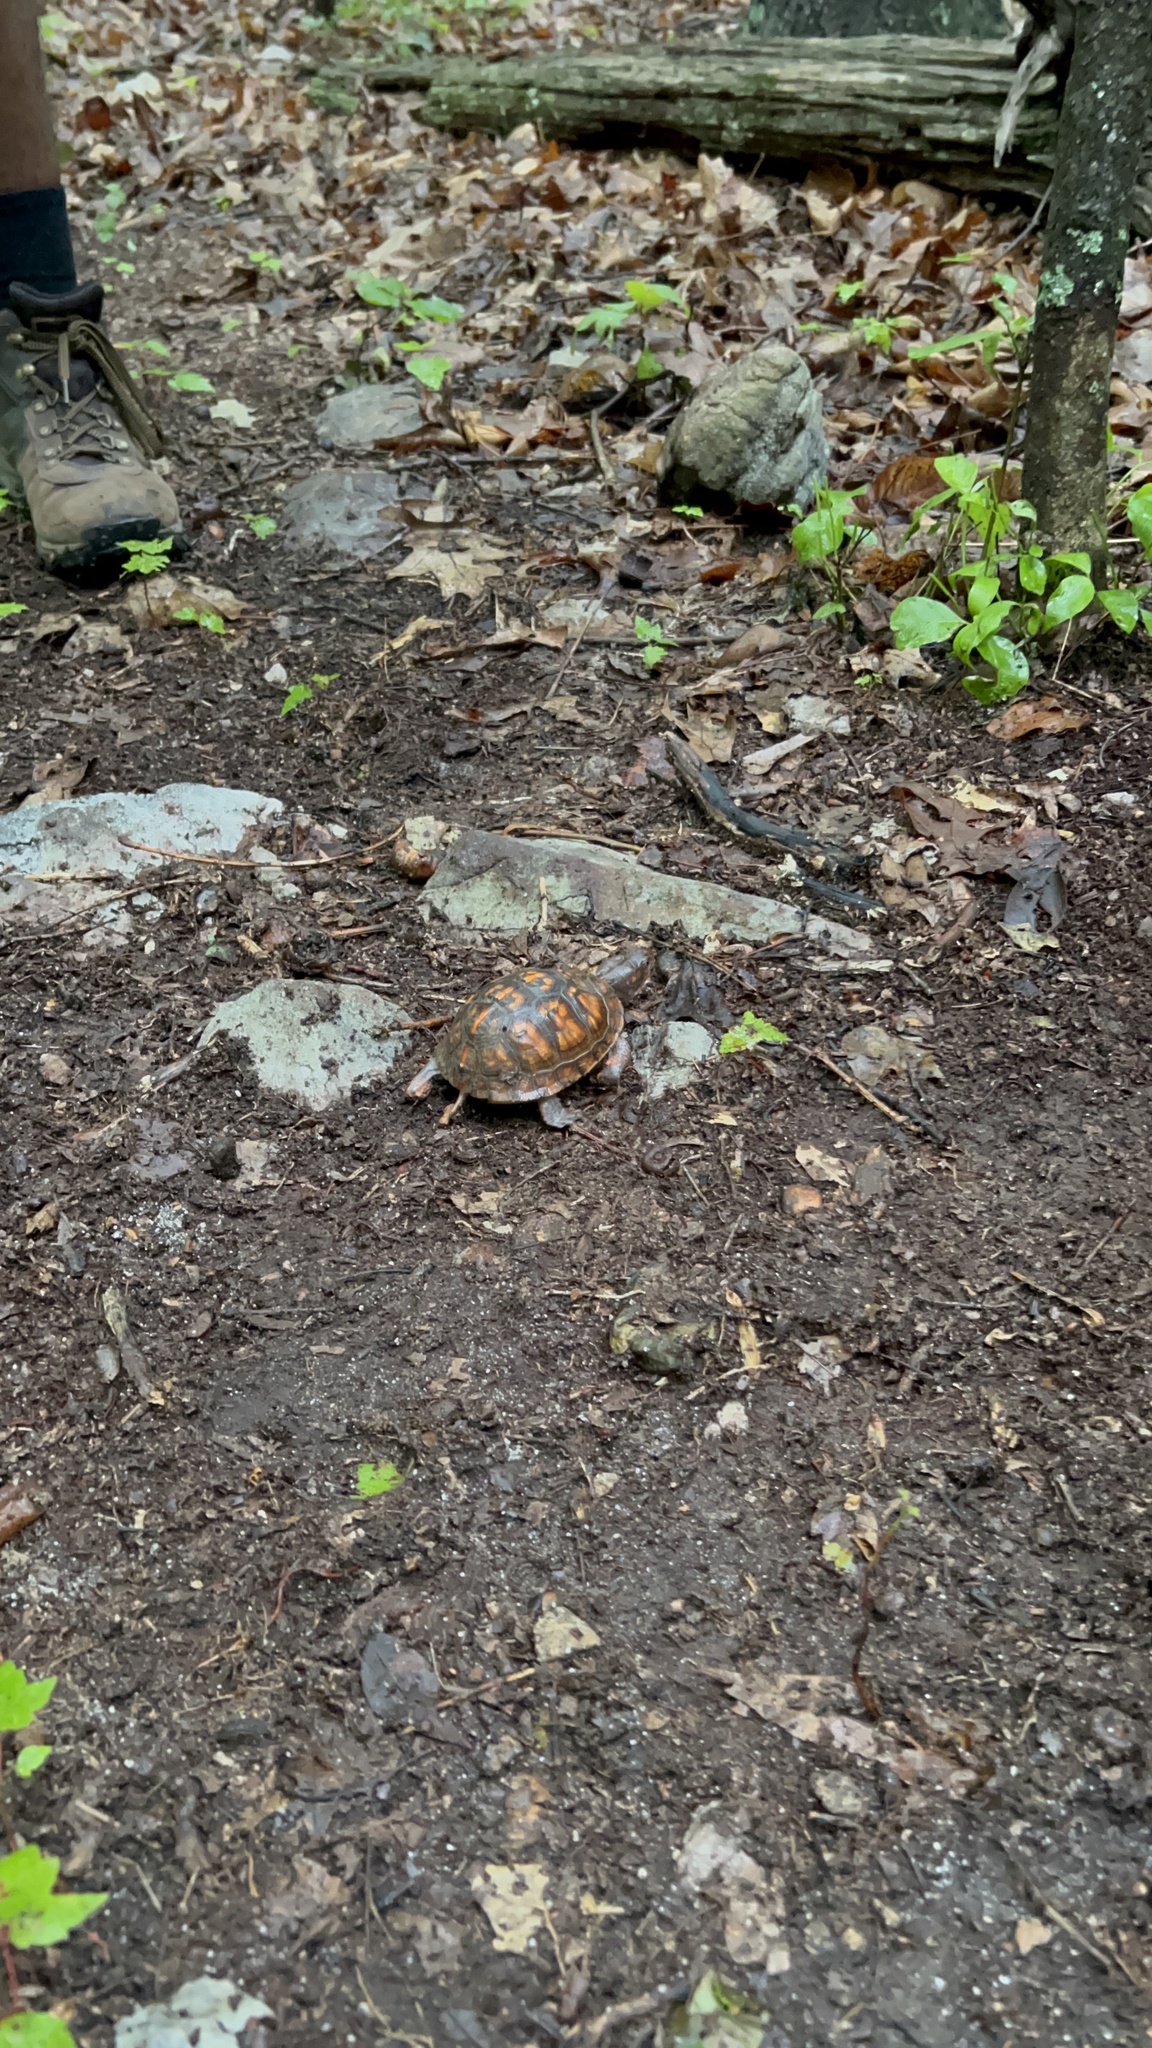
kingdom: Animalia
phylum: Chordata
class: Testudines
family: Emydidae
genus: Terrapene
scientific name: Terrapene carolina
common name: Common box turtle
